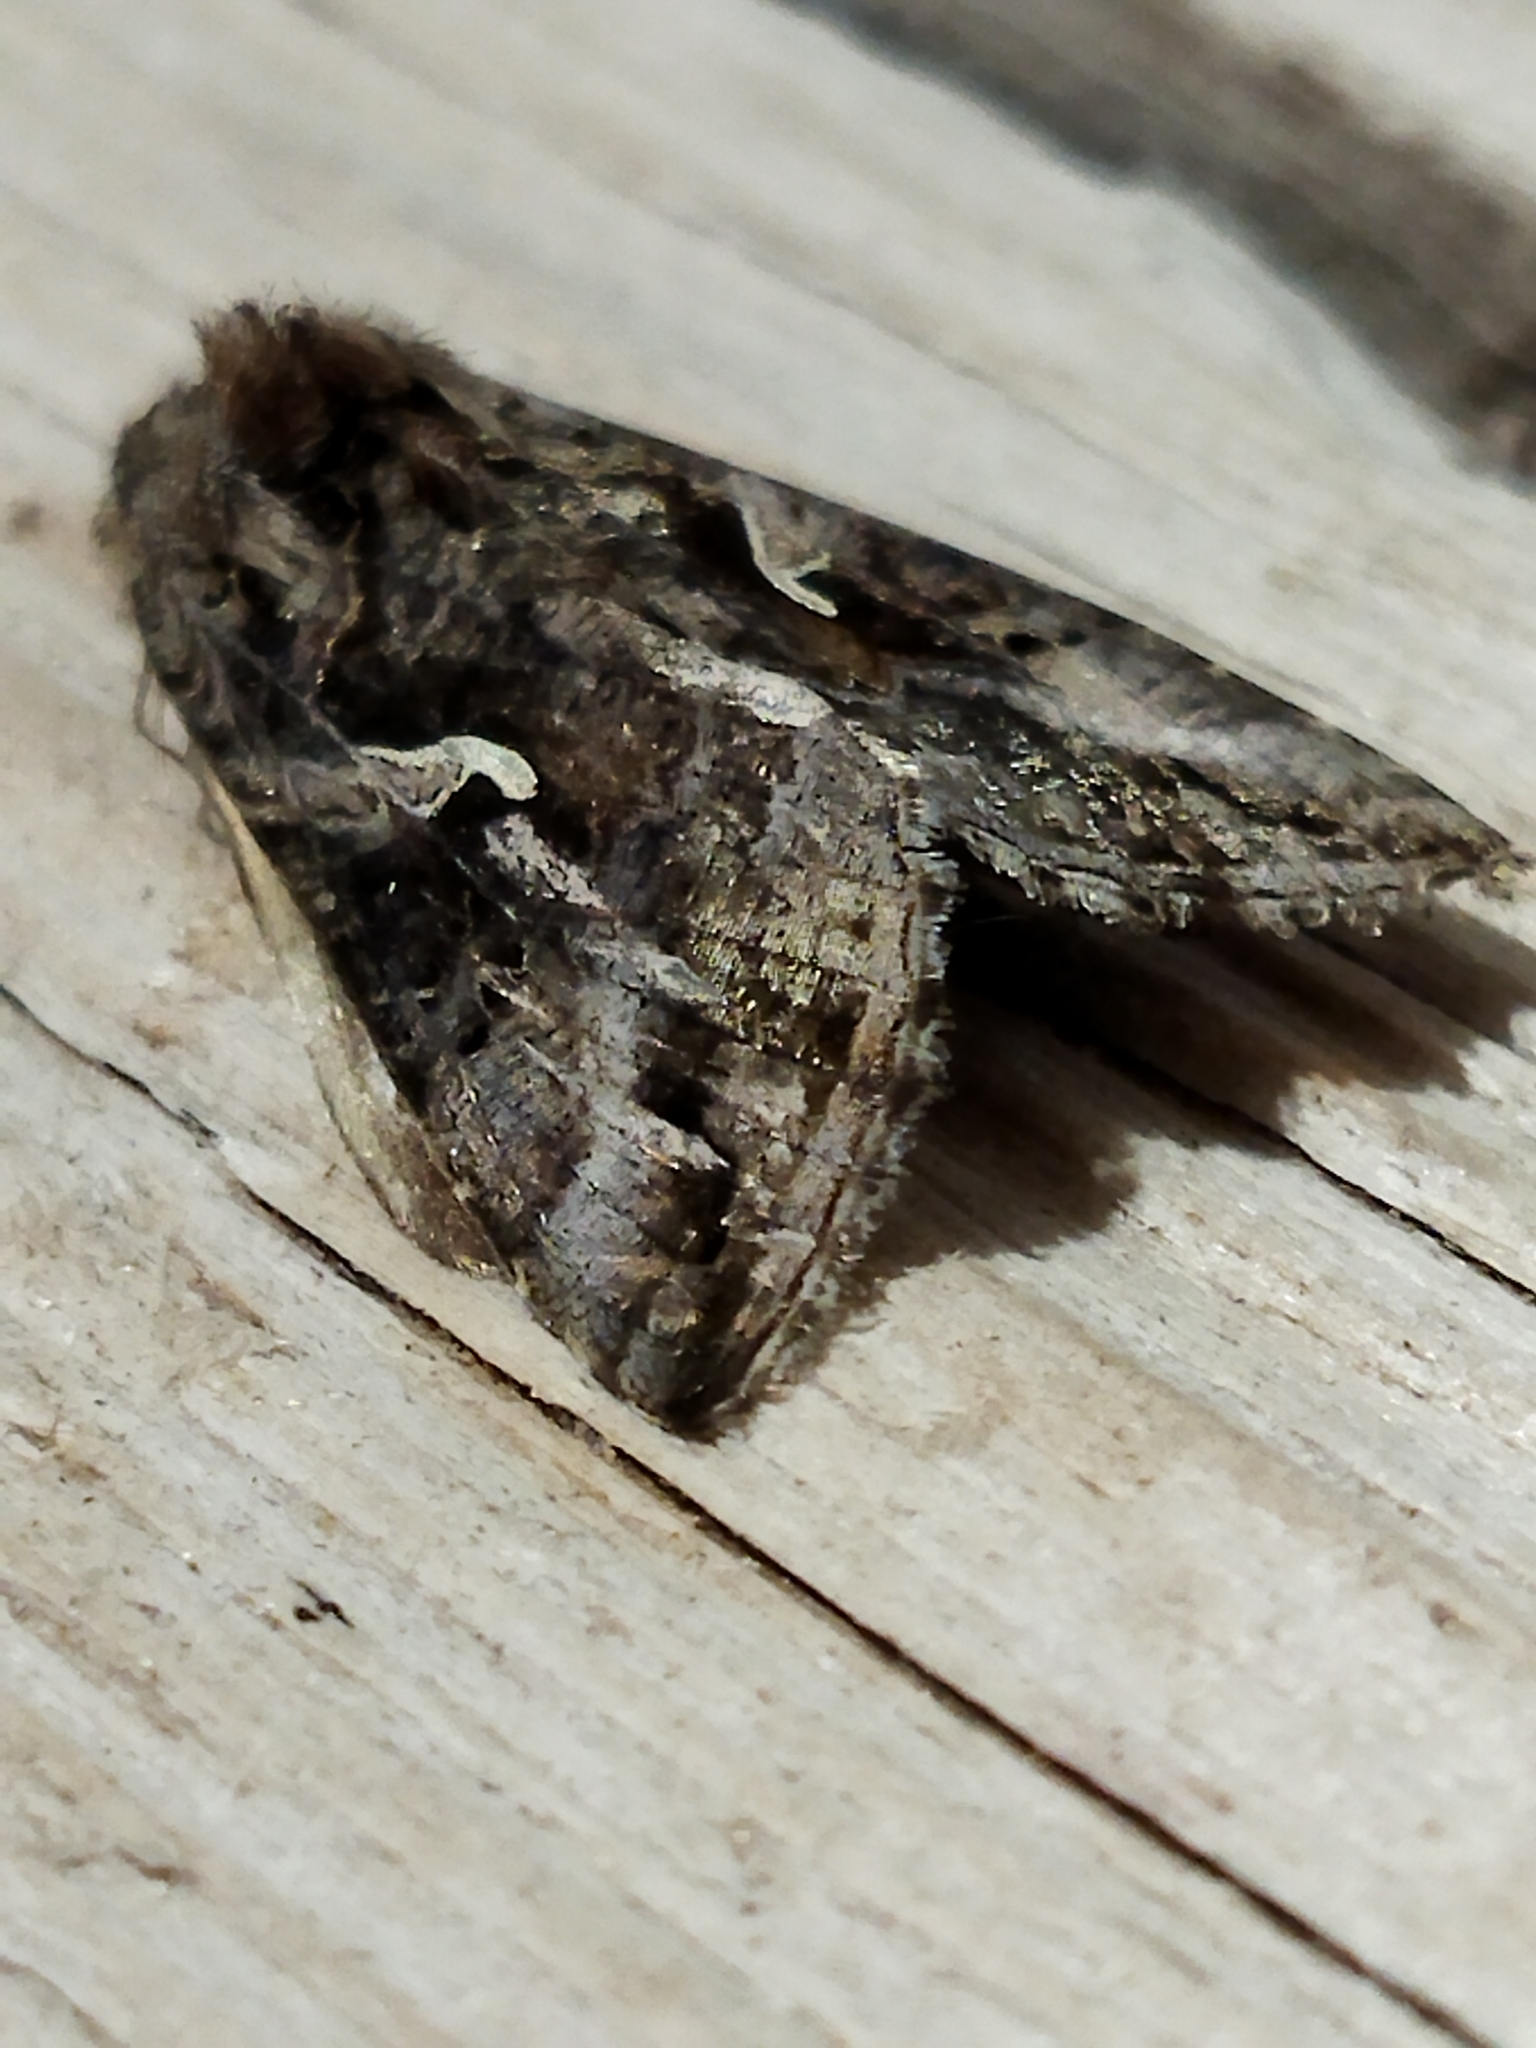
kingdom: Animalia
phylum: Arthropoda
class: Insecta
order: Lepidoptera
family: Noctuidae
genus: Autographa
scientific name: Autographa gamma
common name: Silver y
